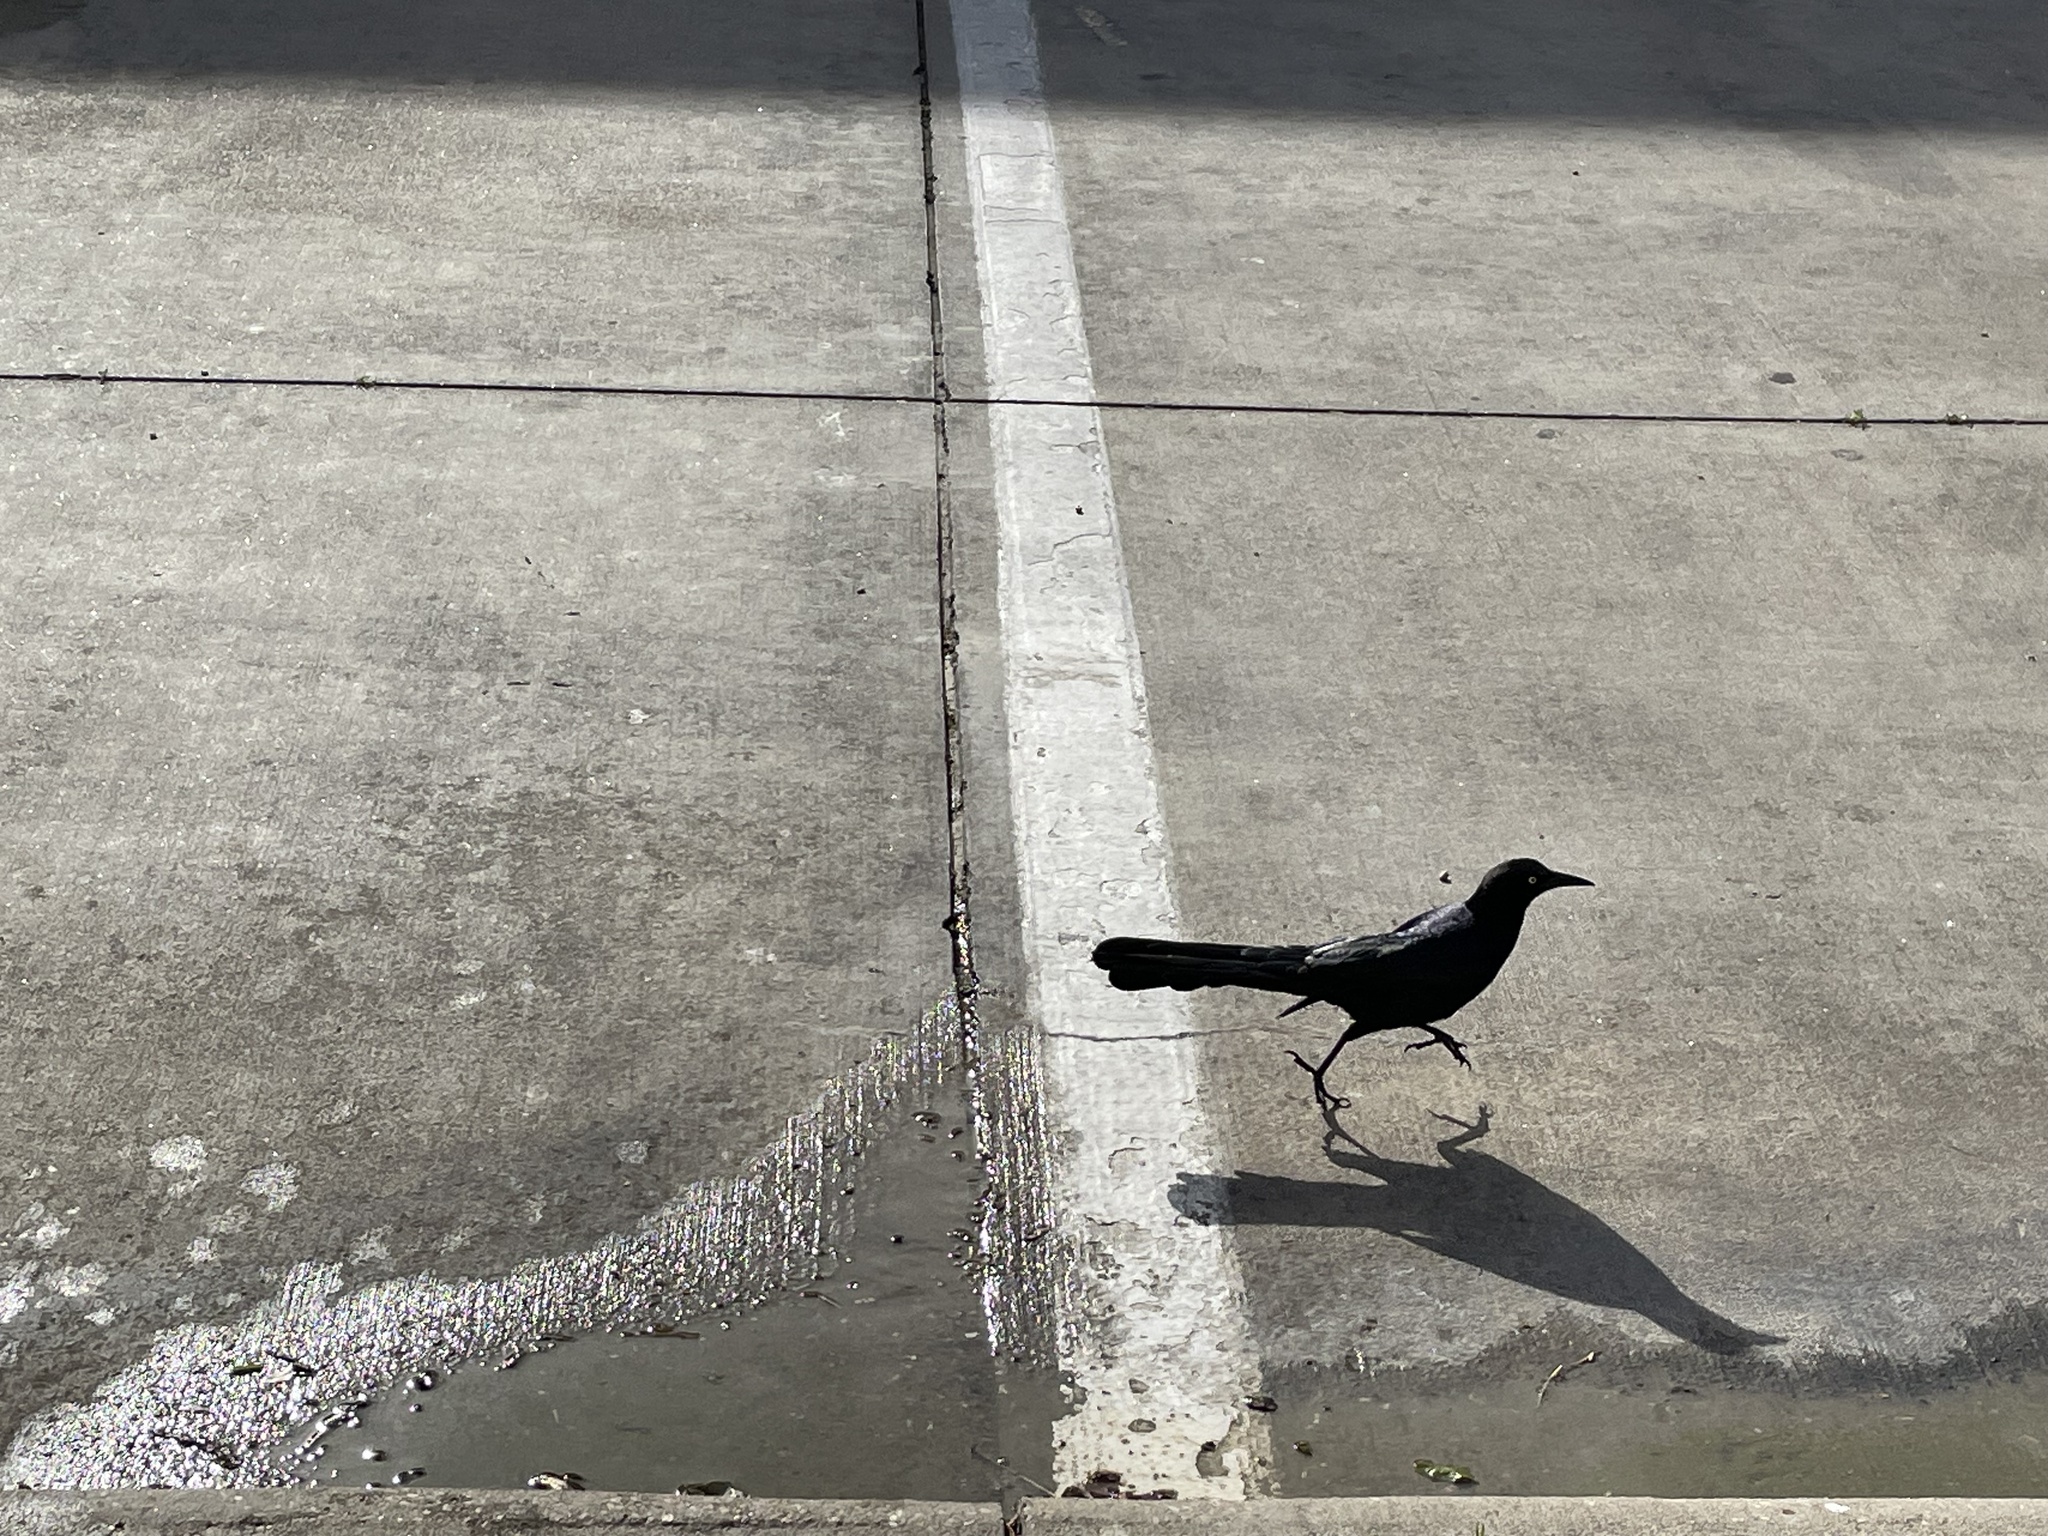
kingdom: Animalia
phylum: Chordata
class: Aves
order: Passeriformes
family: Icteridae
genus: Quiscalus
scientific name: Quiscalus mexicanus
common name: Great-tailed grackle
